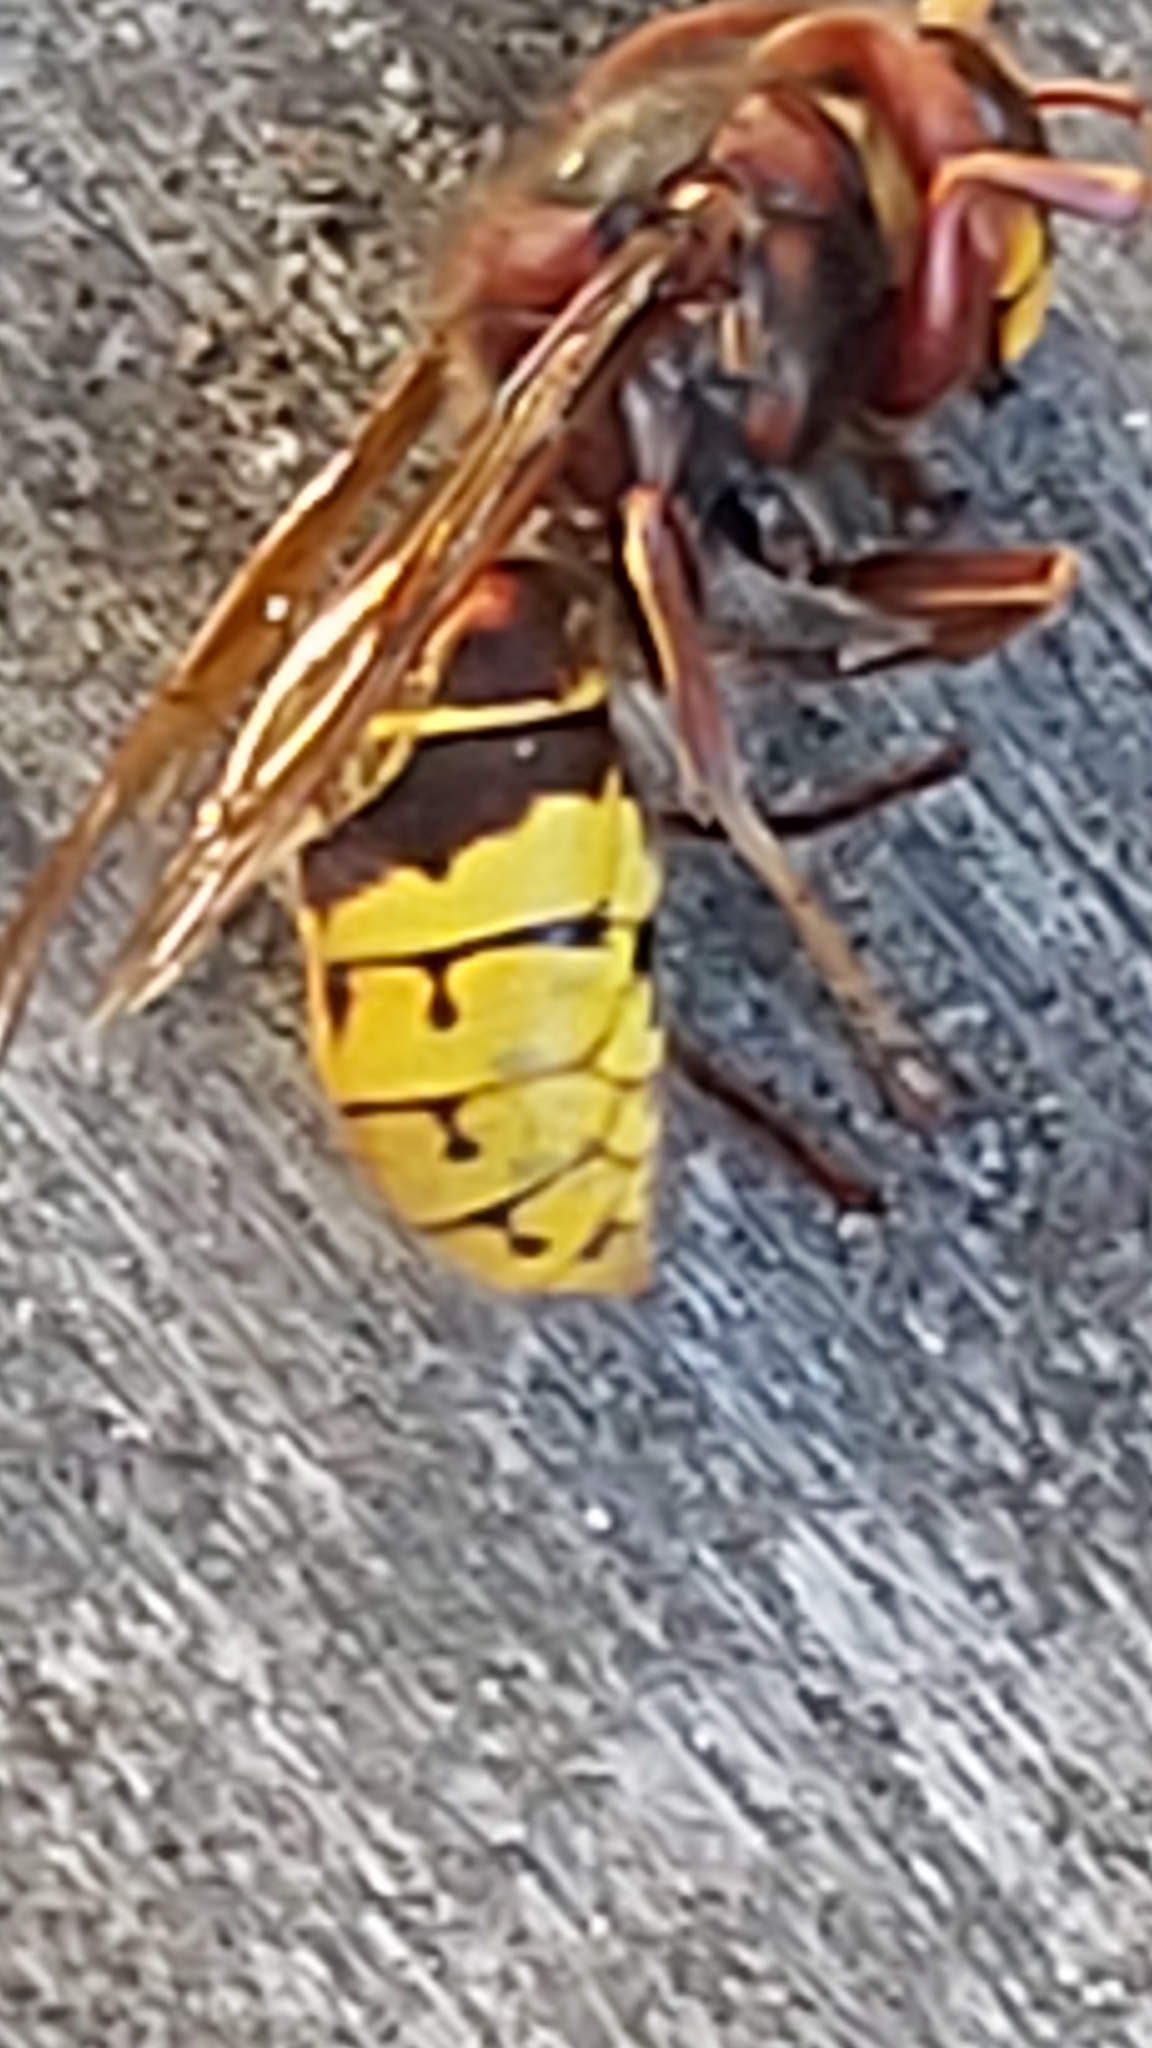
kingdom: Animalia
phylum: Arthropoda
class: Insecta
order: Hymenoptera
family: Vespidae
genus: Vespa
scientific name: Vespa crabro
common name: Hornet
